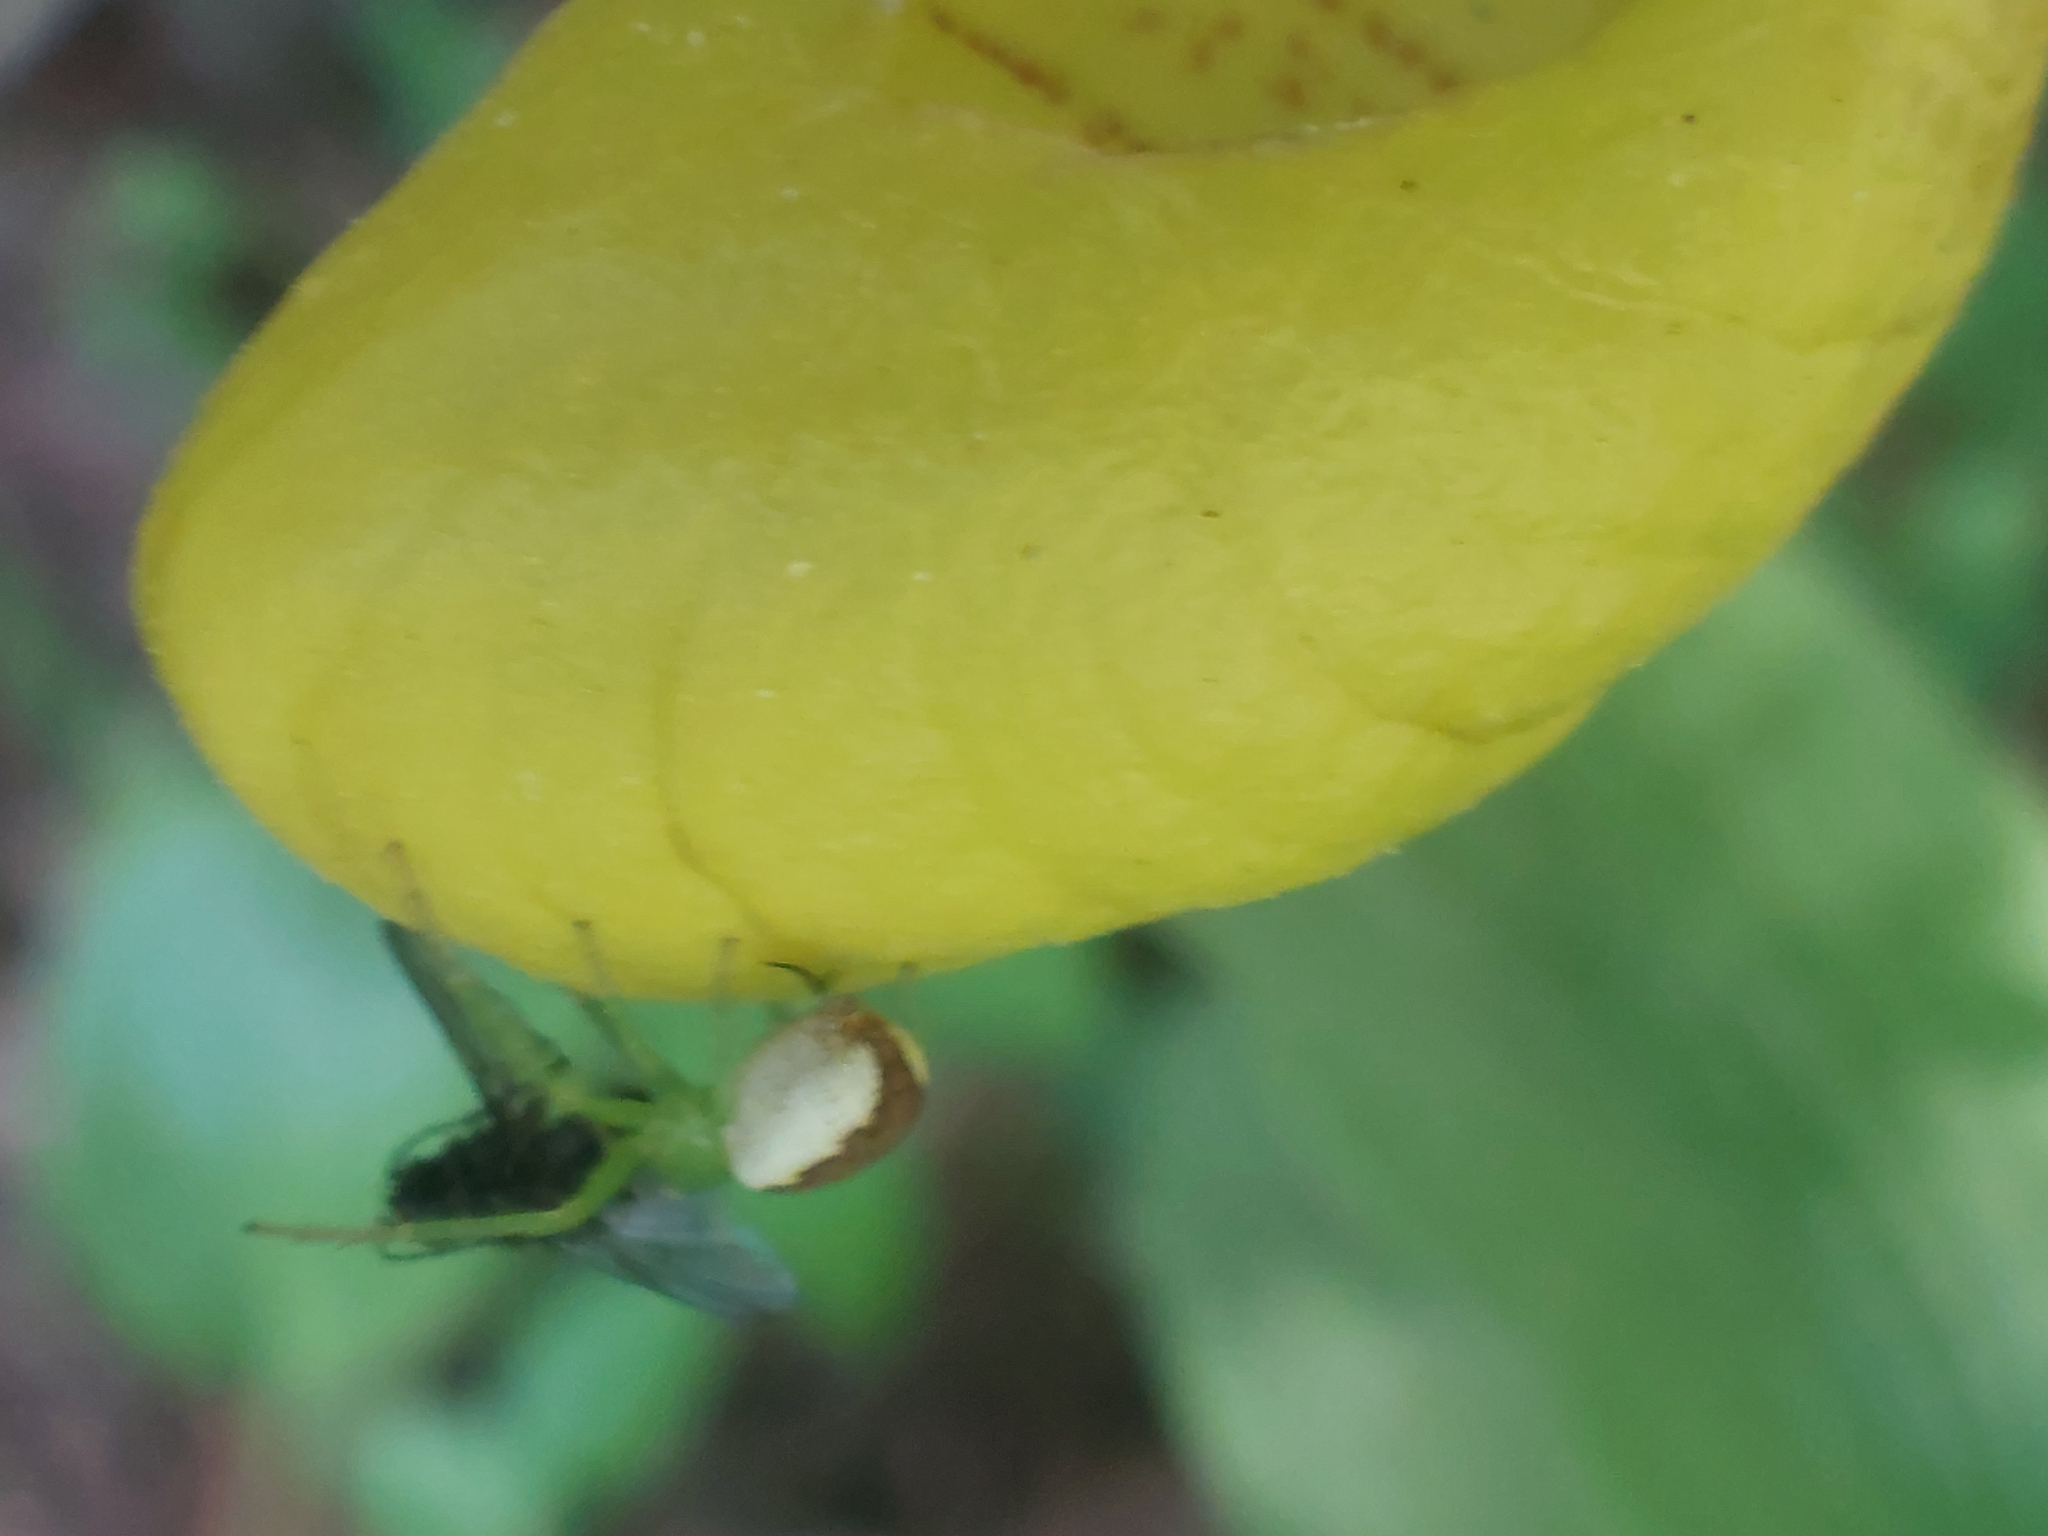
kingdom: Animalia
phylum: Arthropoda
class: Arachnida
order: Araneae
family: Thomisidae
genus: Diaea
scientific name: Diaea dorsata
